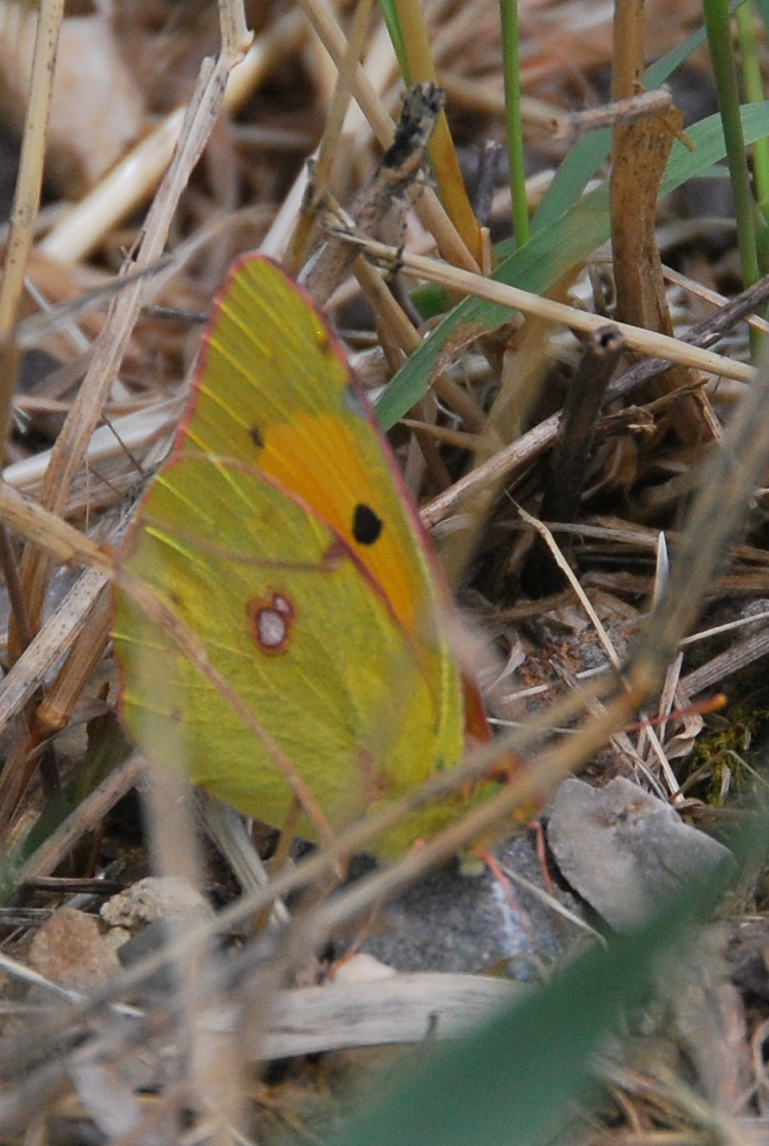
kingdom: Animalia
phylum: Arthropoda
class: Insecta
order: Lepidoptera
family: Pieridae
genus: Colias
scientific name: Colias croceus
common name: Clouded yellow
